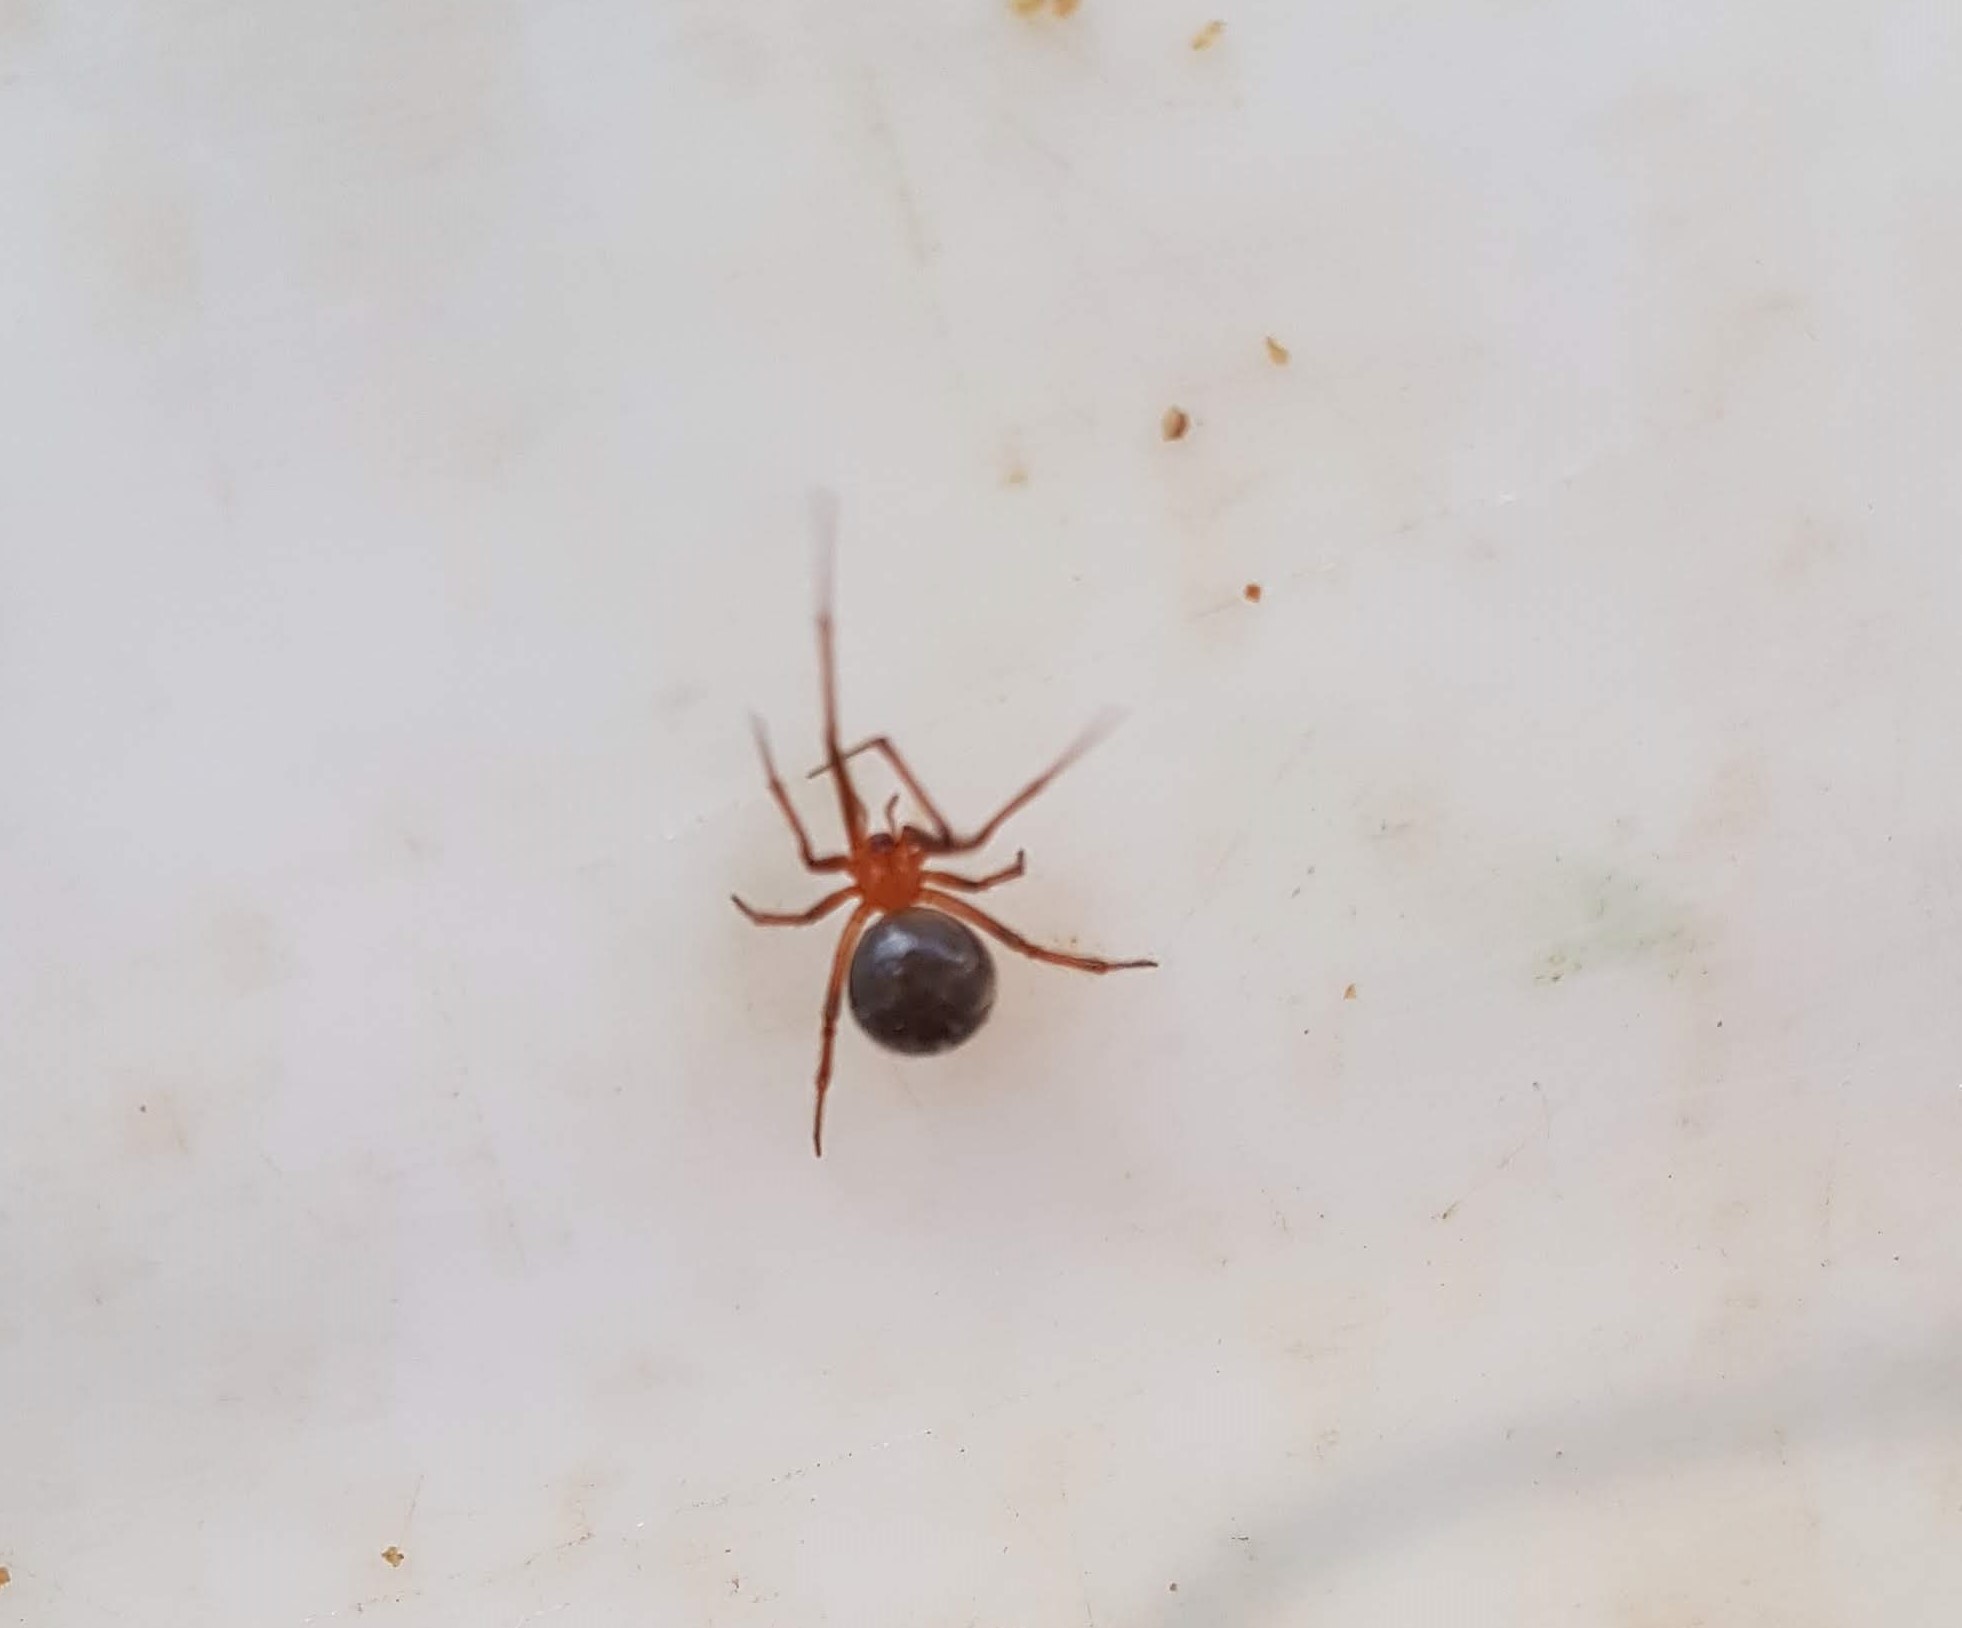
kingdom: Animalia
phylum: Arthropoda
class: Arachnida
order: Araneae
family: Theridiidae
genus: Nesticodes
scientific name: Nesticodes rufipes
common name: Cobweb spiders
